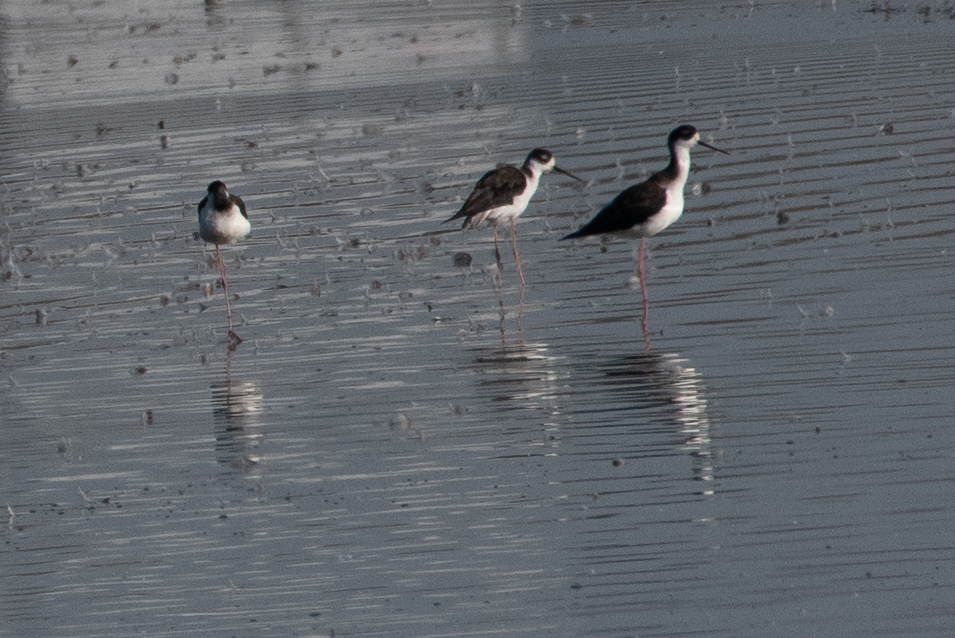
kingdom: Animalia
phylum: Chordata
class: Aves
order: Charadriiformes
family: Recurvirostridae
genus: Himantopus
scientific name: Himantopus mexicanus
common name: Black-necked stilt
